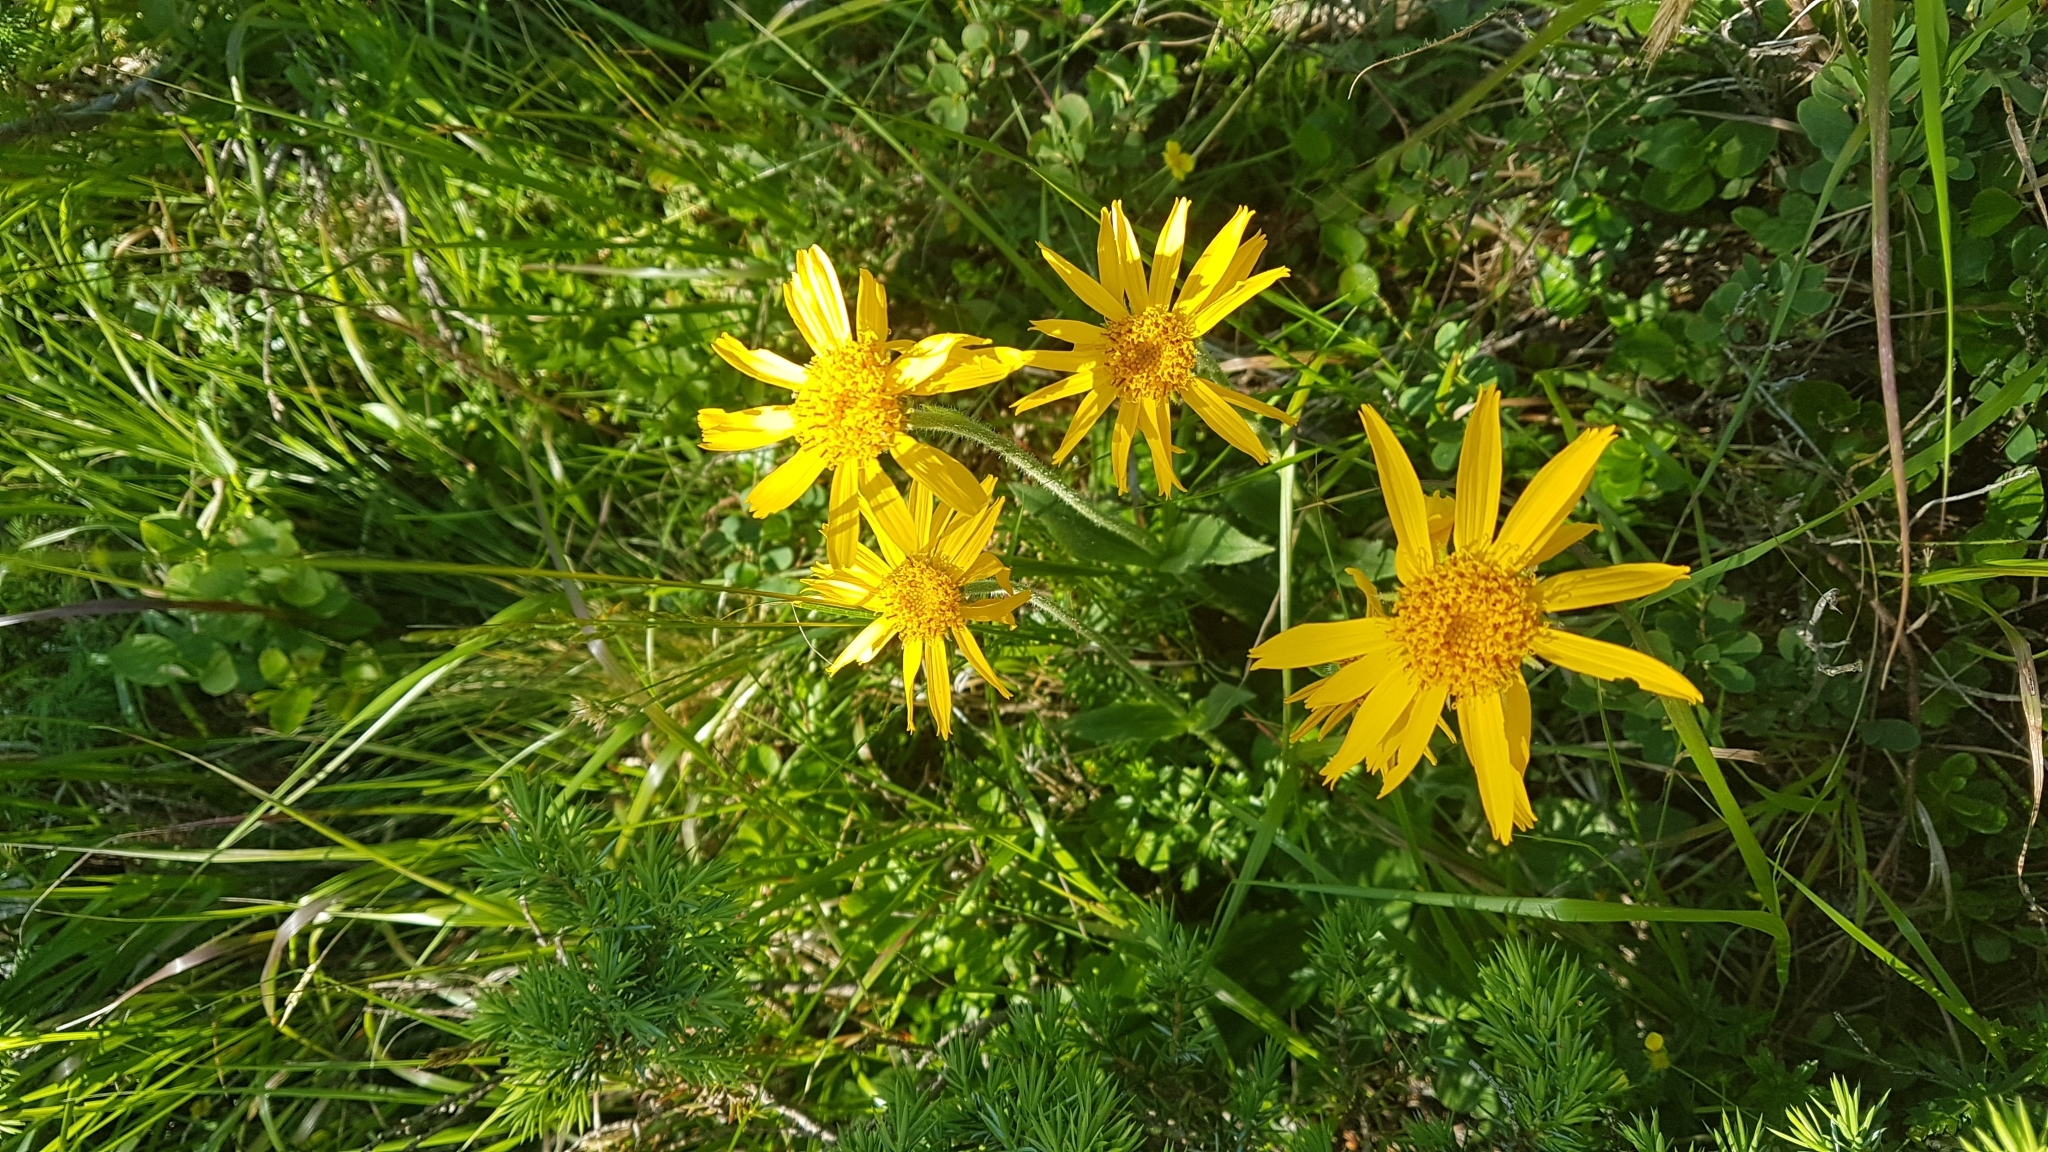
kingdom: Plantae
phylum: Tracheophyta
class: Magnoliopsida
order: Asterales
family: Asteraceae
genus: Arnica
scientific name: Arnica montana
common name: Leopard's bane
